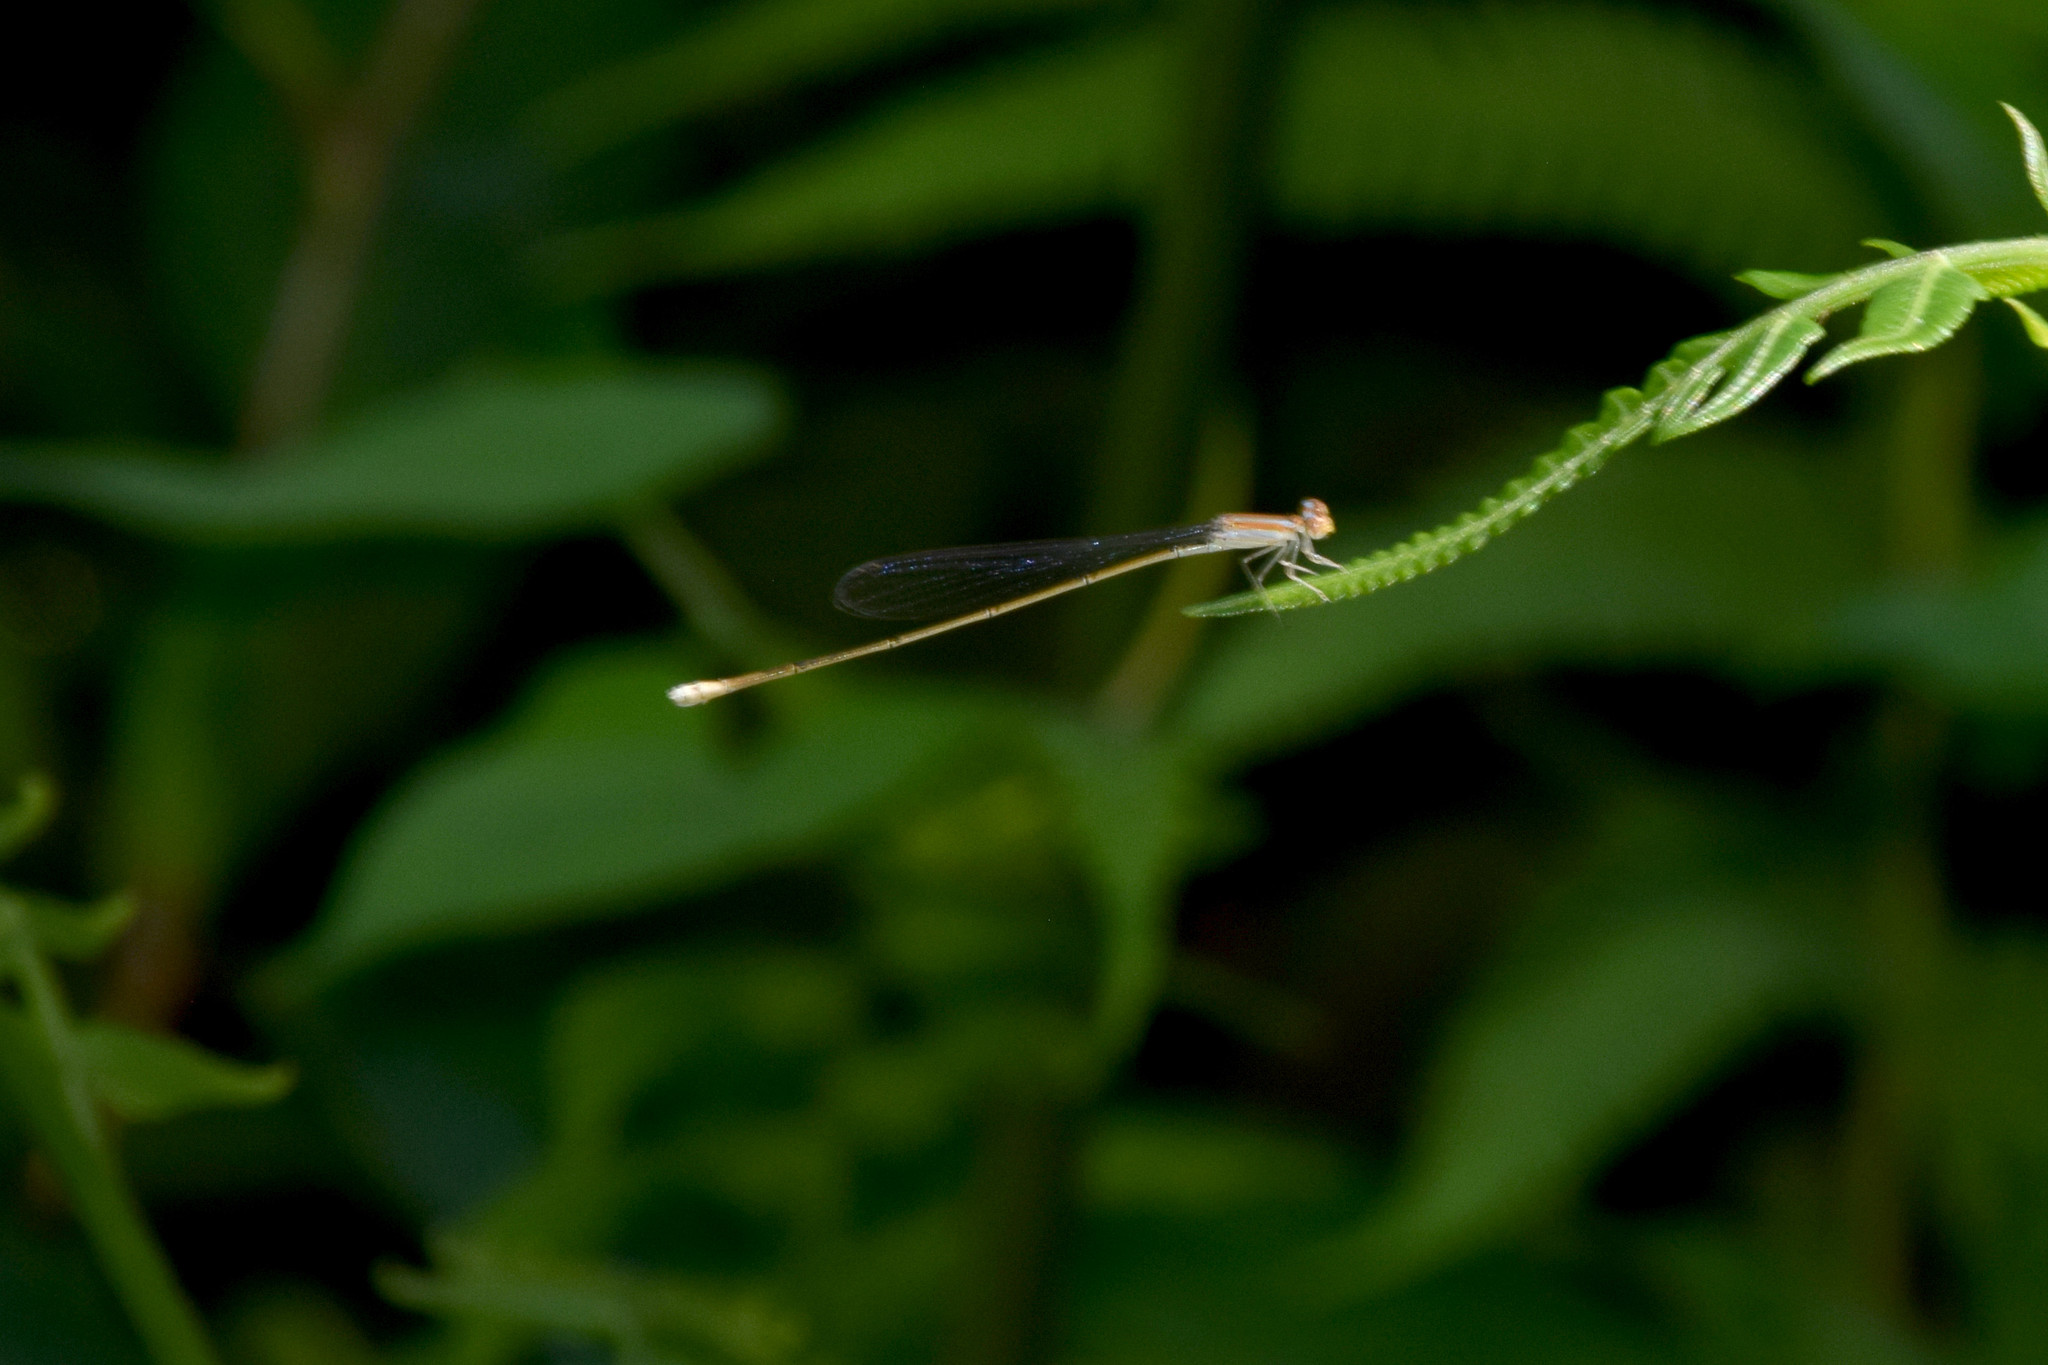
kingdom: Animalia
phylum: Arthropoda
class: Insecta
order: Odonata
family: Coenagrionidae
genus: Aciagrion
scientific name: Aciagrion pallidum
